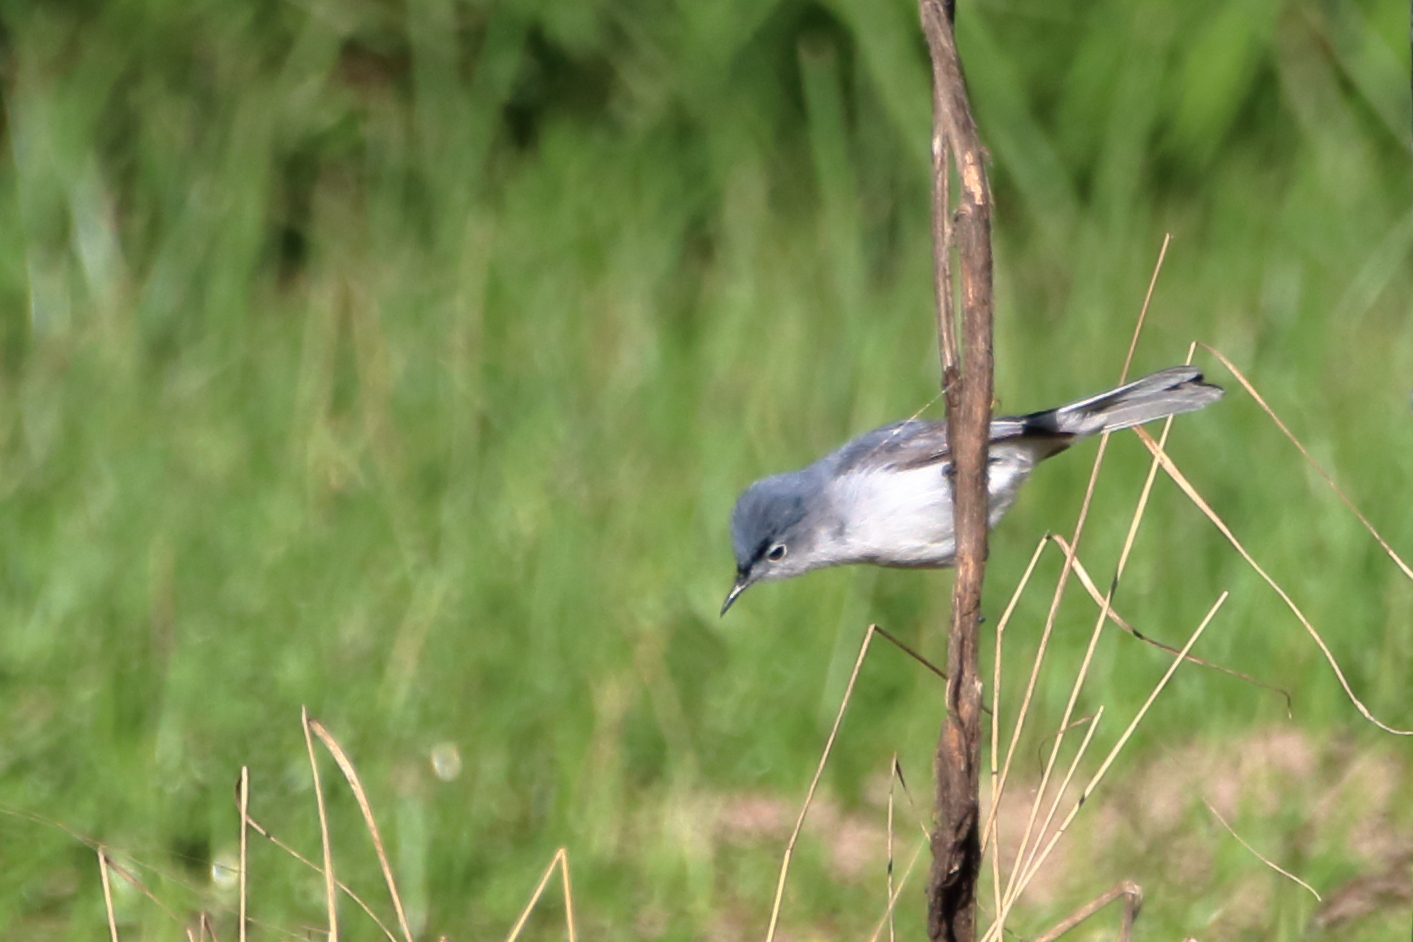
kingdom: Animalia
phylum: Chordata
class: Aves
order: Passeriformes
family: Polioptilidae
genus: Polioptila
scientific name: Polioptila caerulea
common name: Blue-gray gnatcatcher
